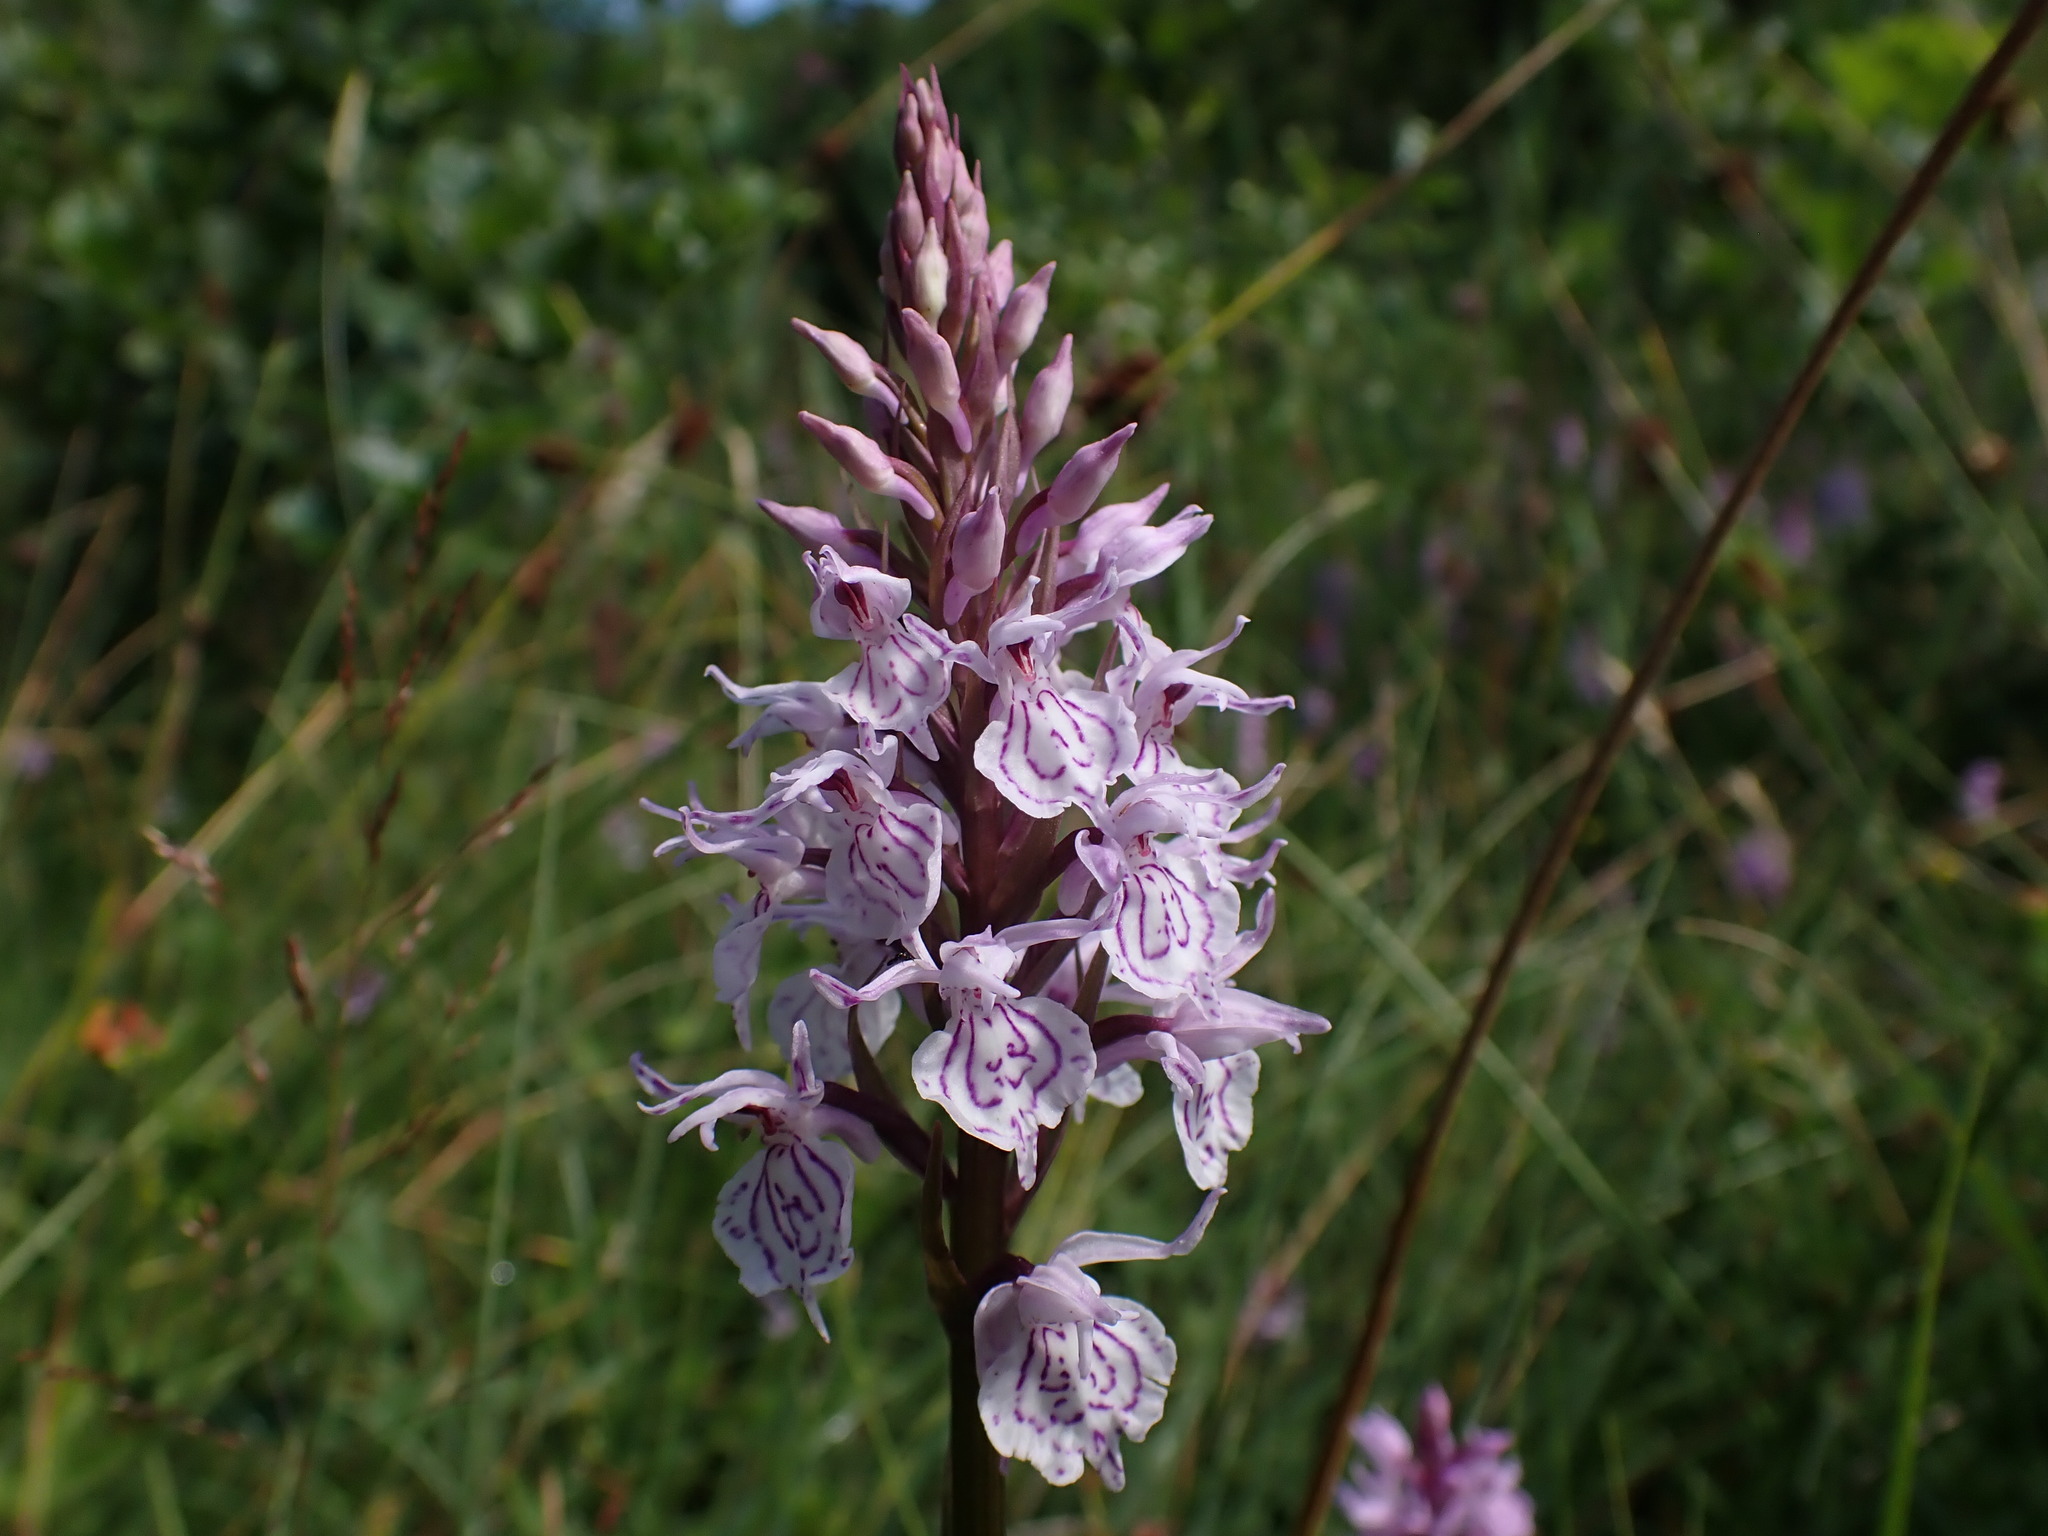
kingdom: Plantae
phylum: Tracheophyta
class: Liliopsida
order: Asparagales
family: Orchidaceae
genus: Dactylorhiza
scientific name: Dactylorhiza maculata
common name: Heath spotted-orchid
